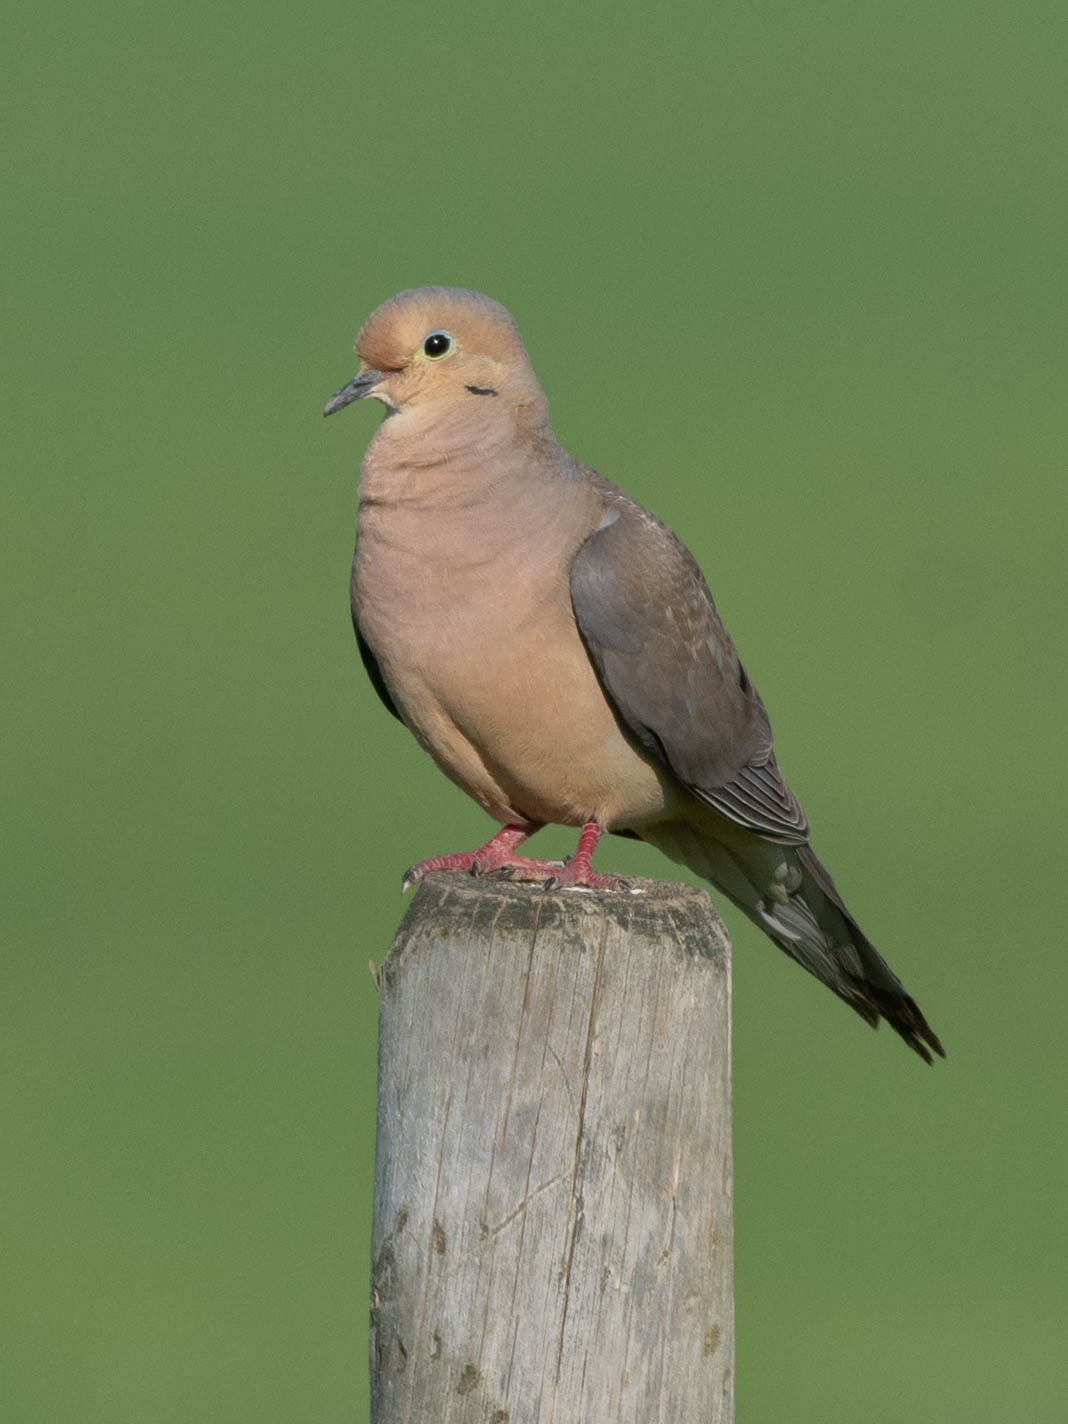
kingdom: Animalia
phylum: Chordata
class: Aves
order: Columbiformes
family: Columbidae
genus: Zenaida
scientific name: Zenaida macroura
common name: Mourning dove
